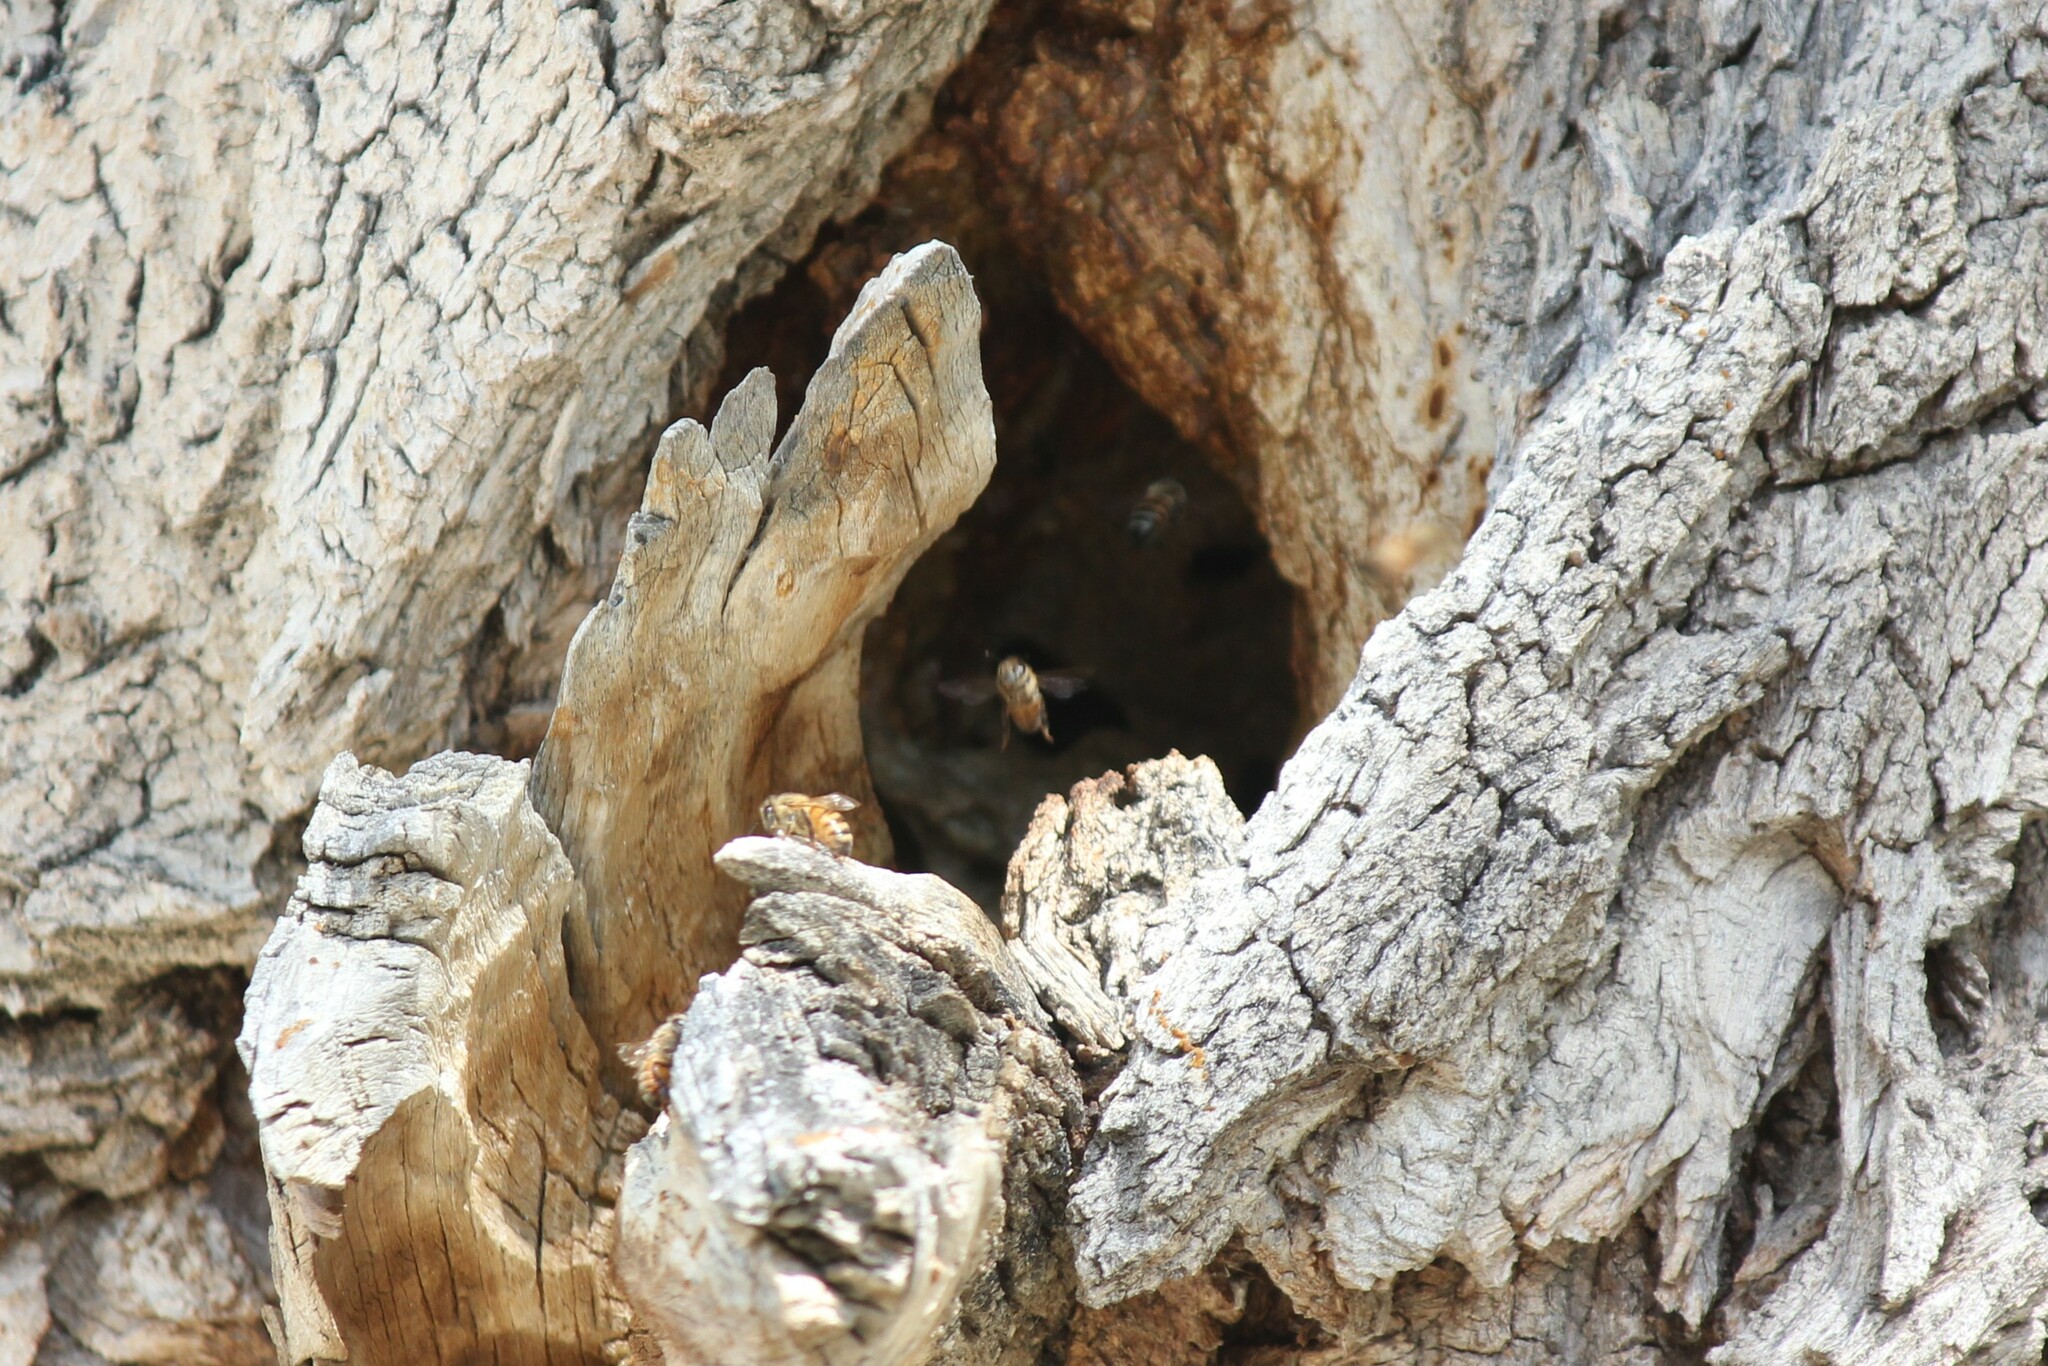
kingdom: Animalia
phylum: Arthropoda
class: Insecta
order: Hymenoptera
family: Apidae
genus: Apis
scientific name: Apis mellifera
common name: Honey bee
